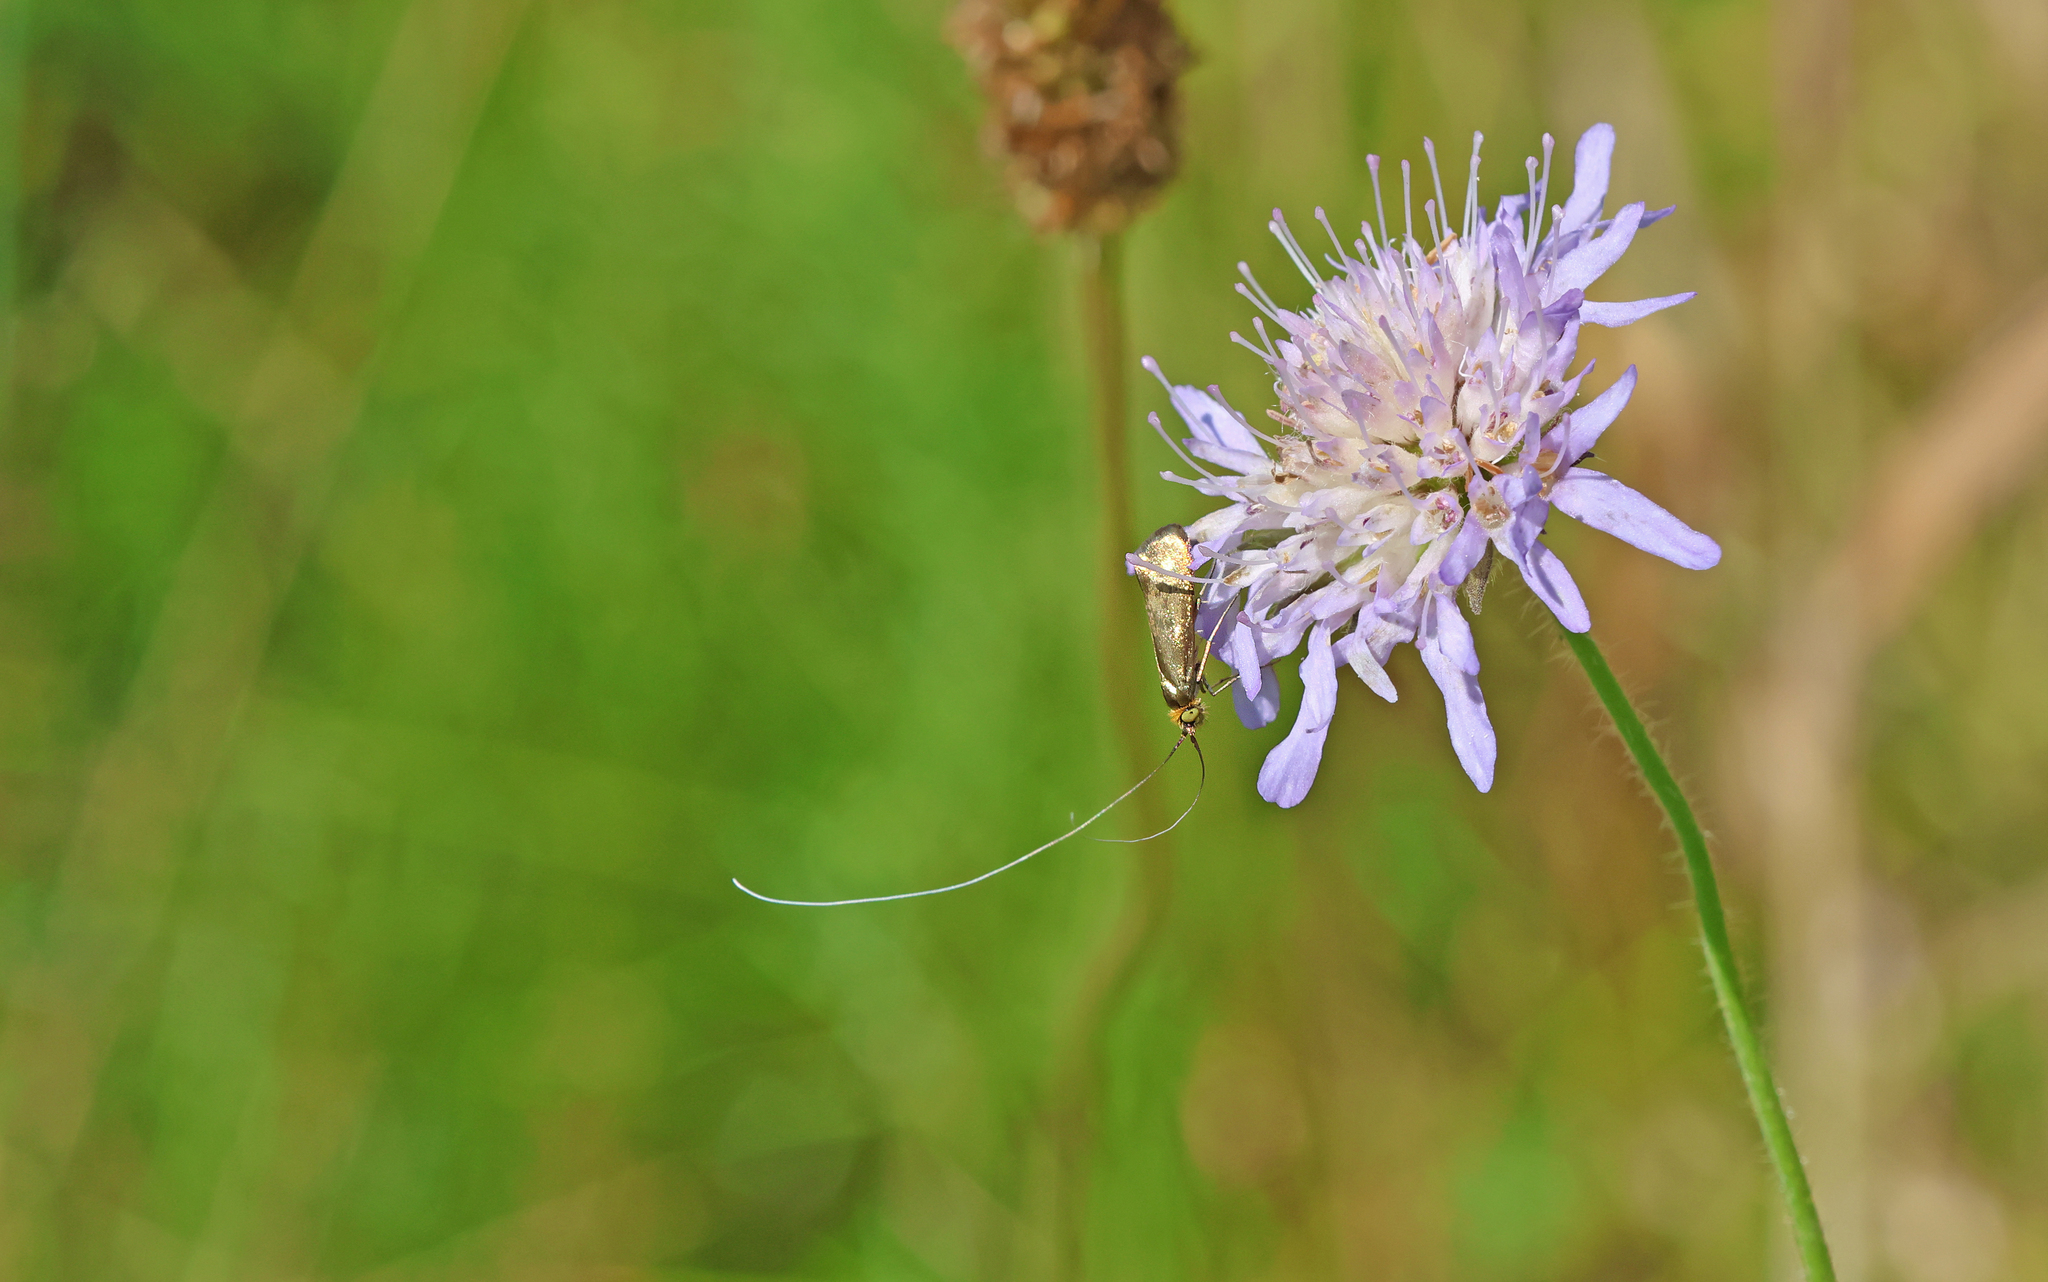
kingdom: Animalia
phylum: Arthropoda
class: Insecta
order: Lepidoptera
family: Adelidae
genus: Nemophora
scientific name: Nemophora metallica
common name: Brassy long-horn
